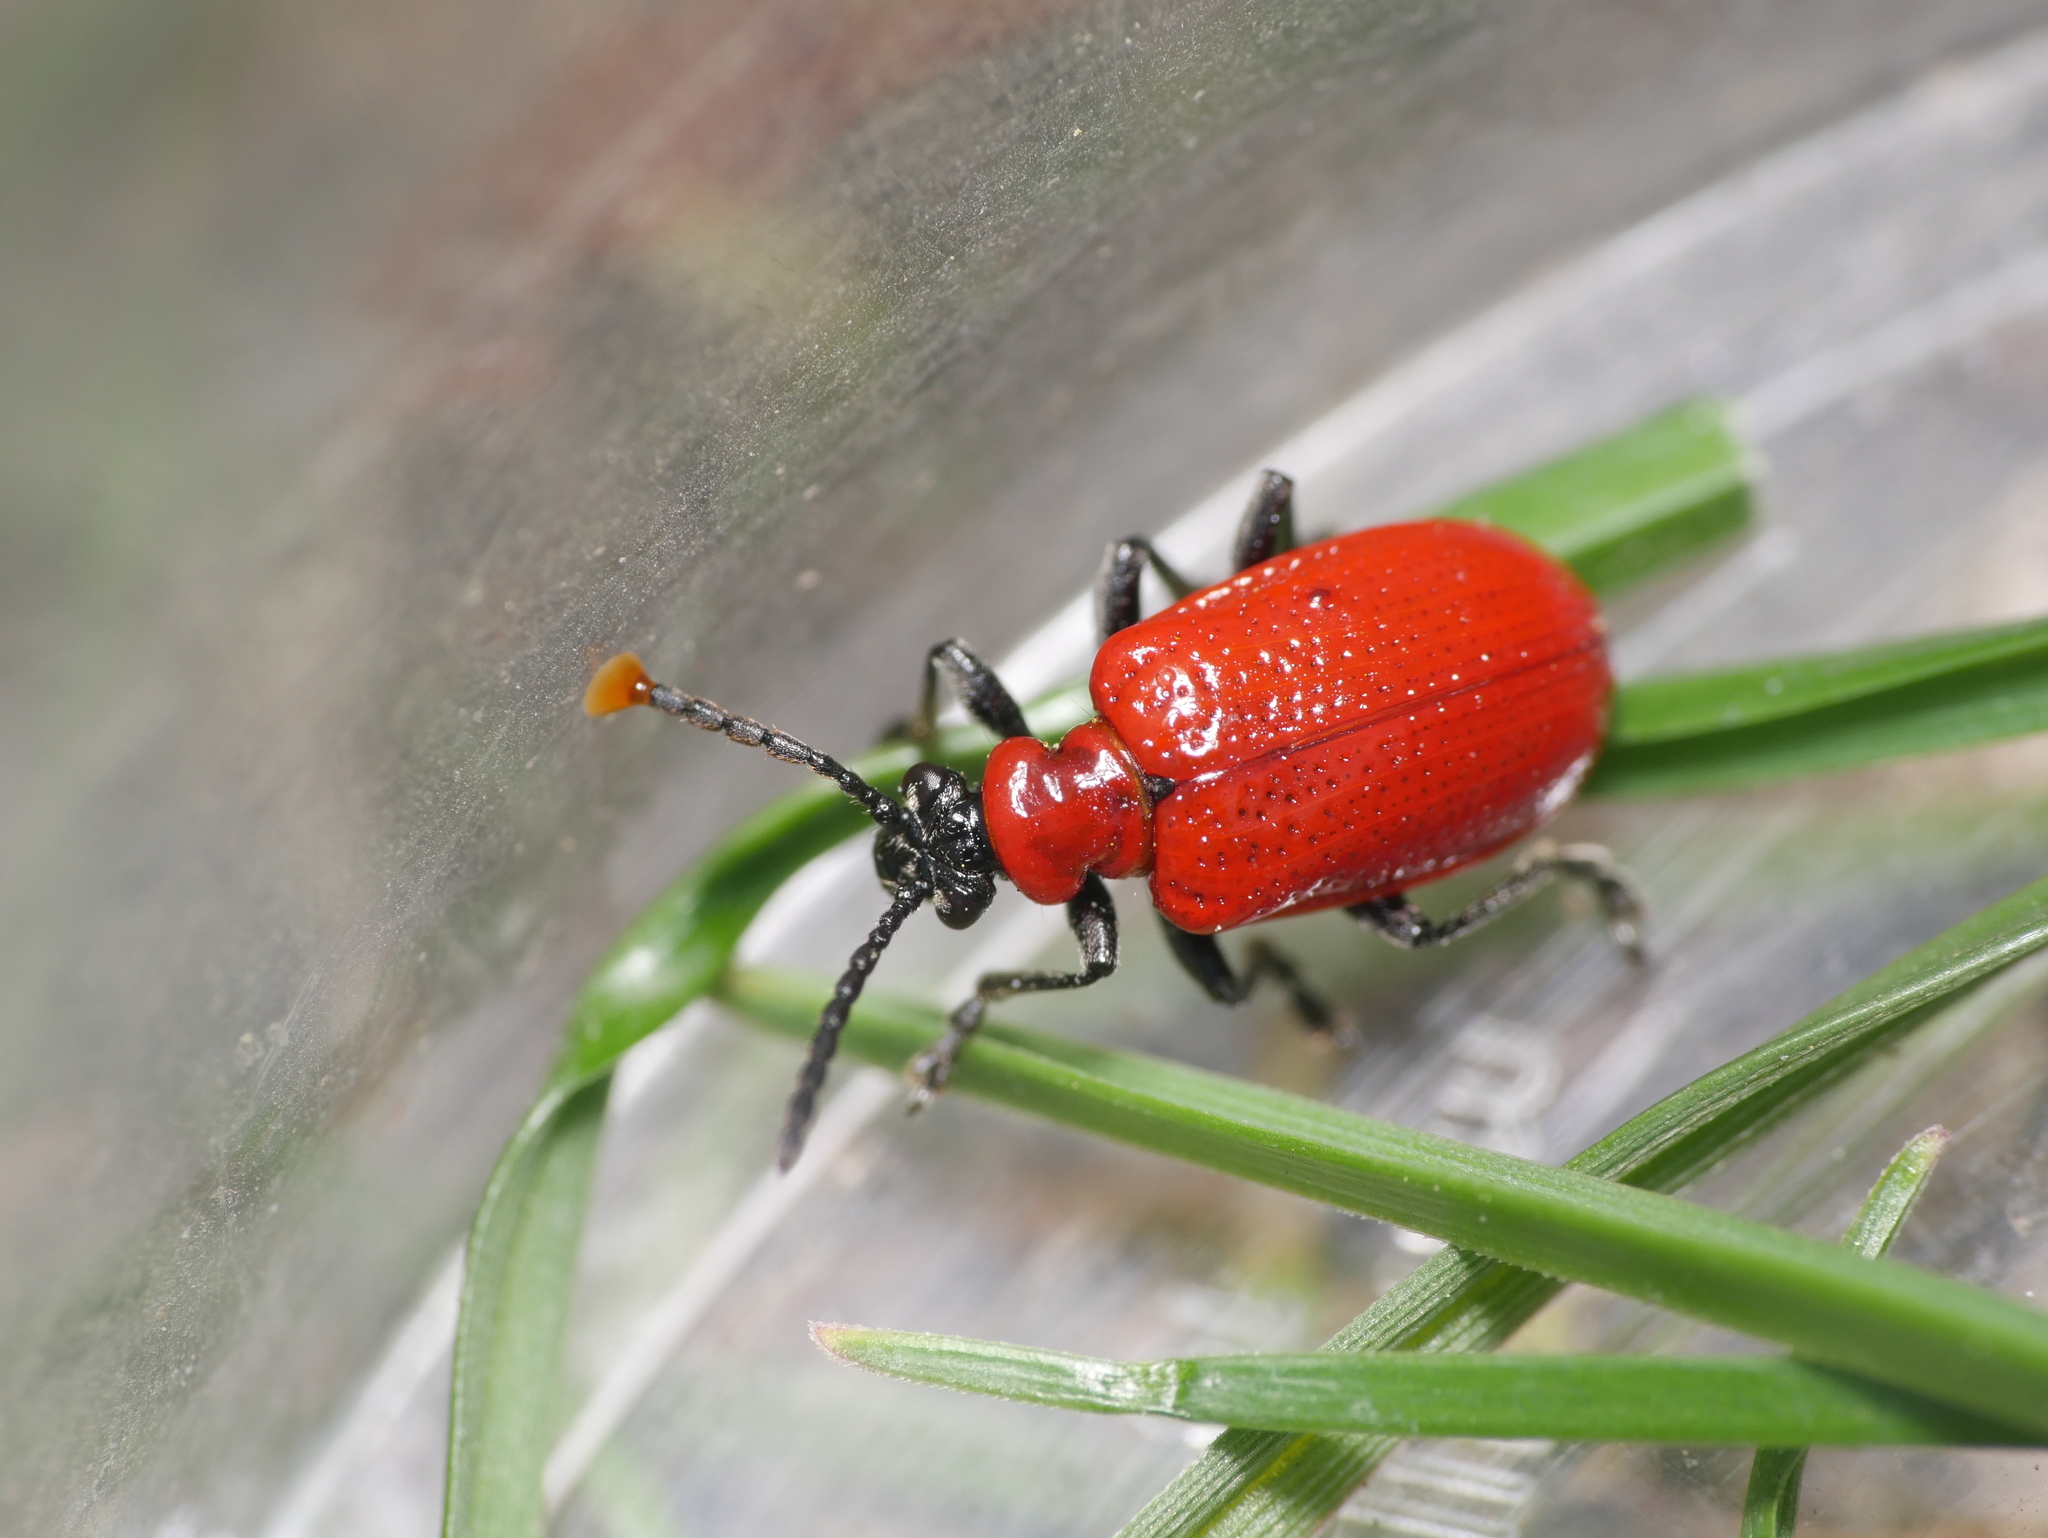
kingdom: Animalia
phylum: Arthropoda
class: Insecta
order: Coleoptera
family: Chrysomelidae
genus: Lilioceris
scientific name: Lilioceris lilii
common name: Lily beetle
